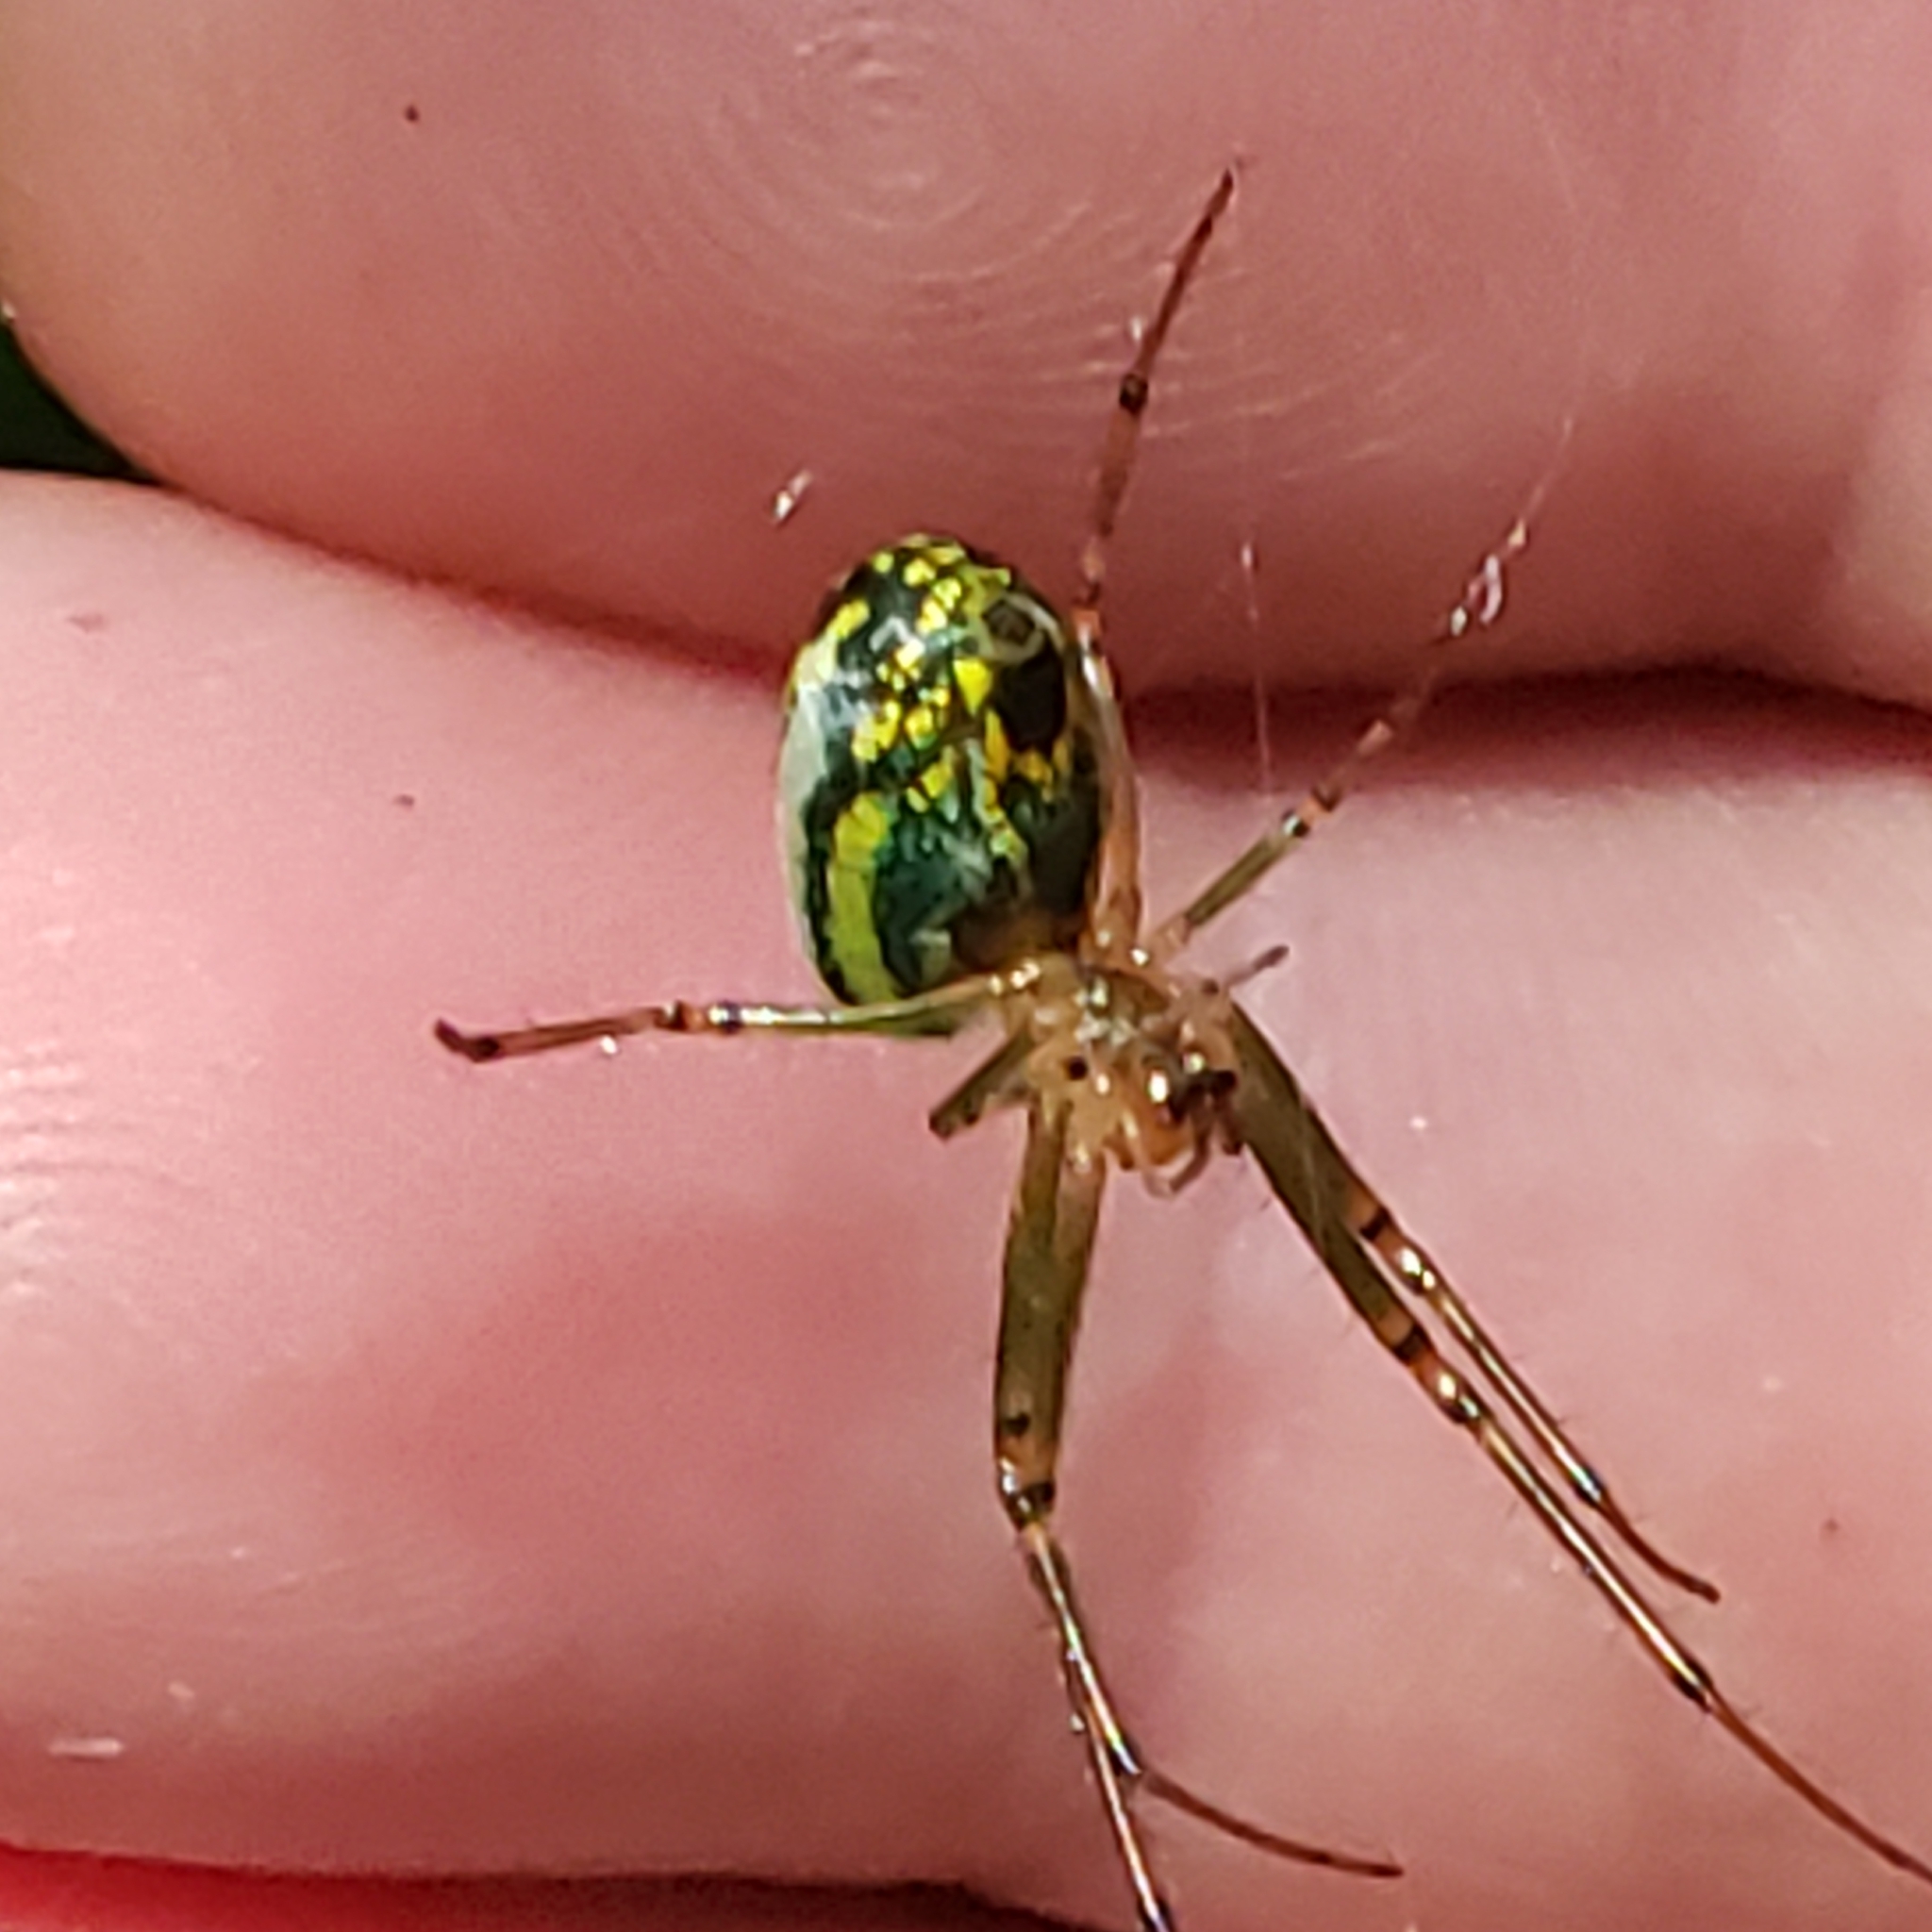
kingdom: Animalia
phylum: Arthropoda
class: Arachnida
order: Araneae
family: Tetragnathidae
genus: Leucauge
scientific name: Leucauge venusta
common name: Longjawed orb weavers
